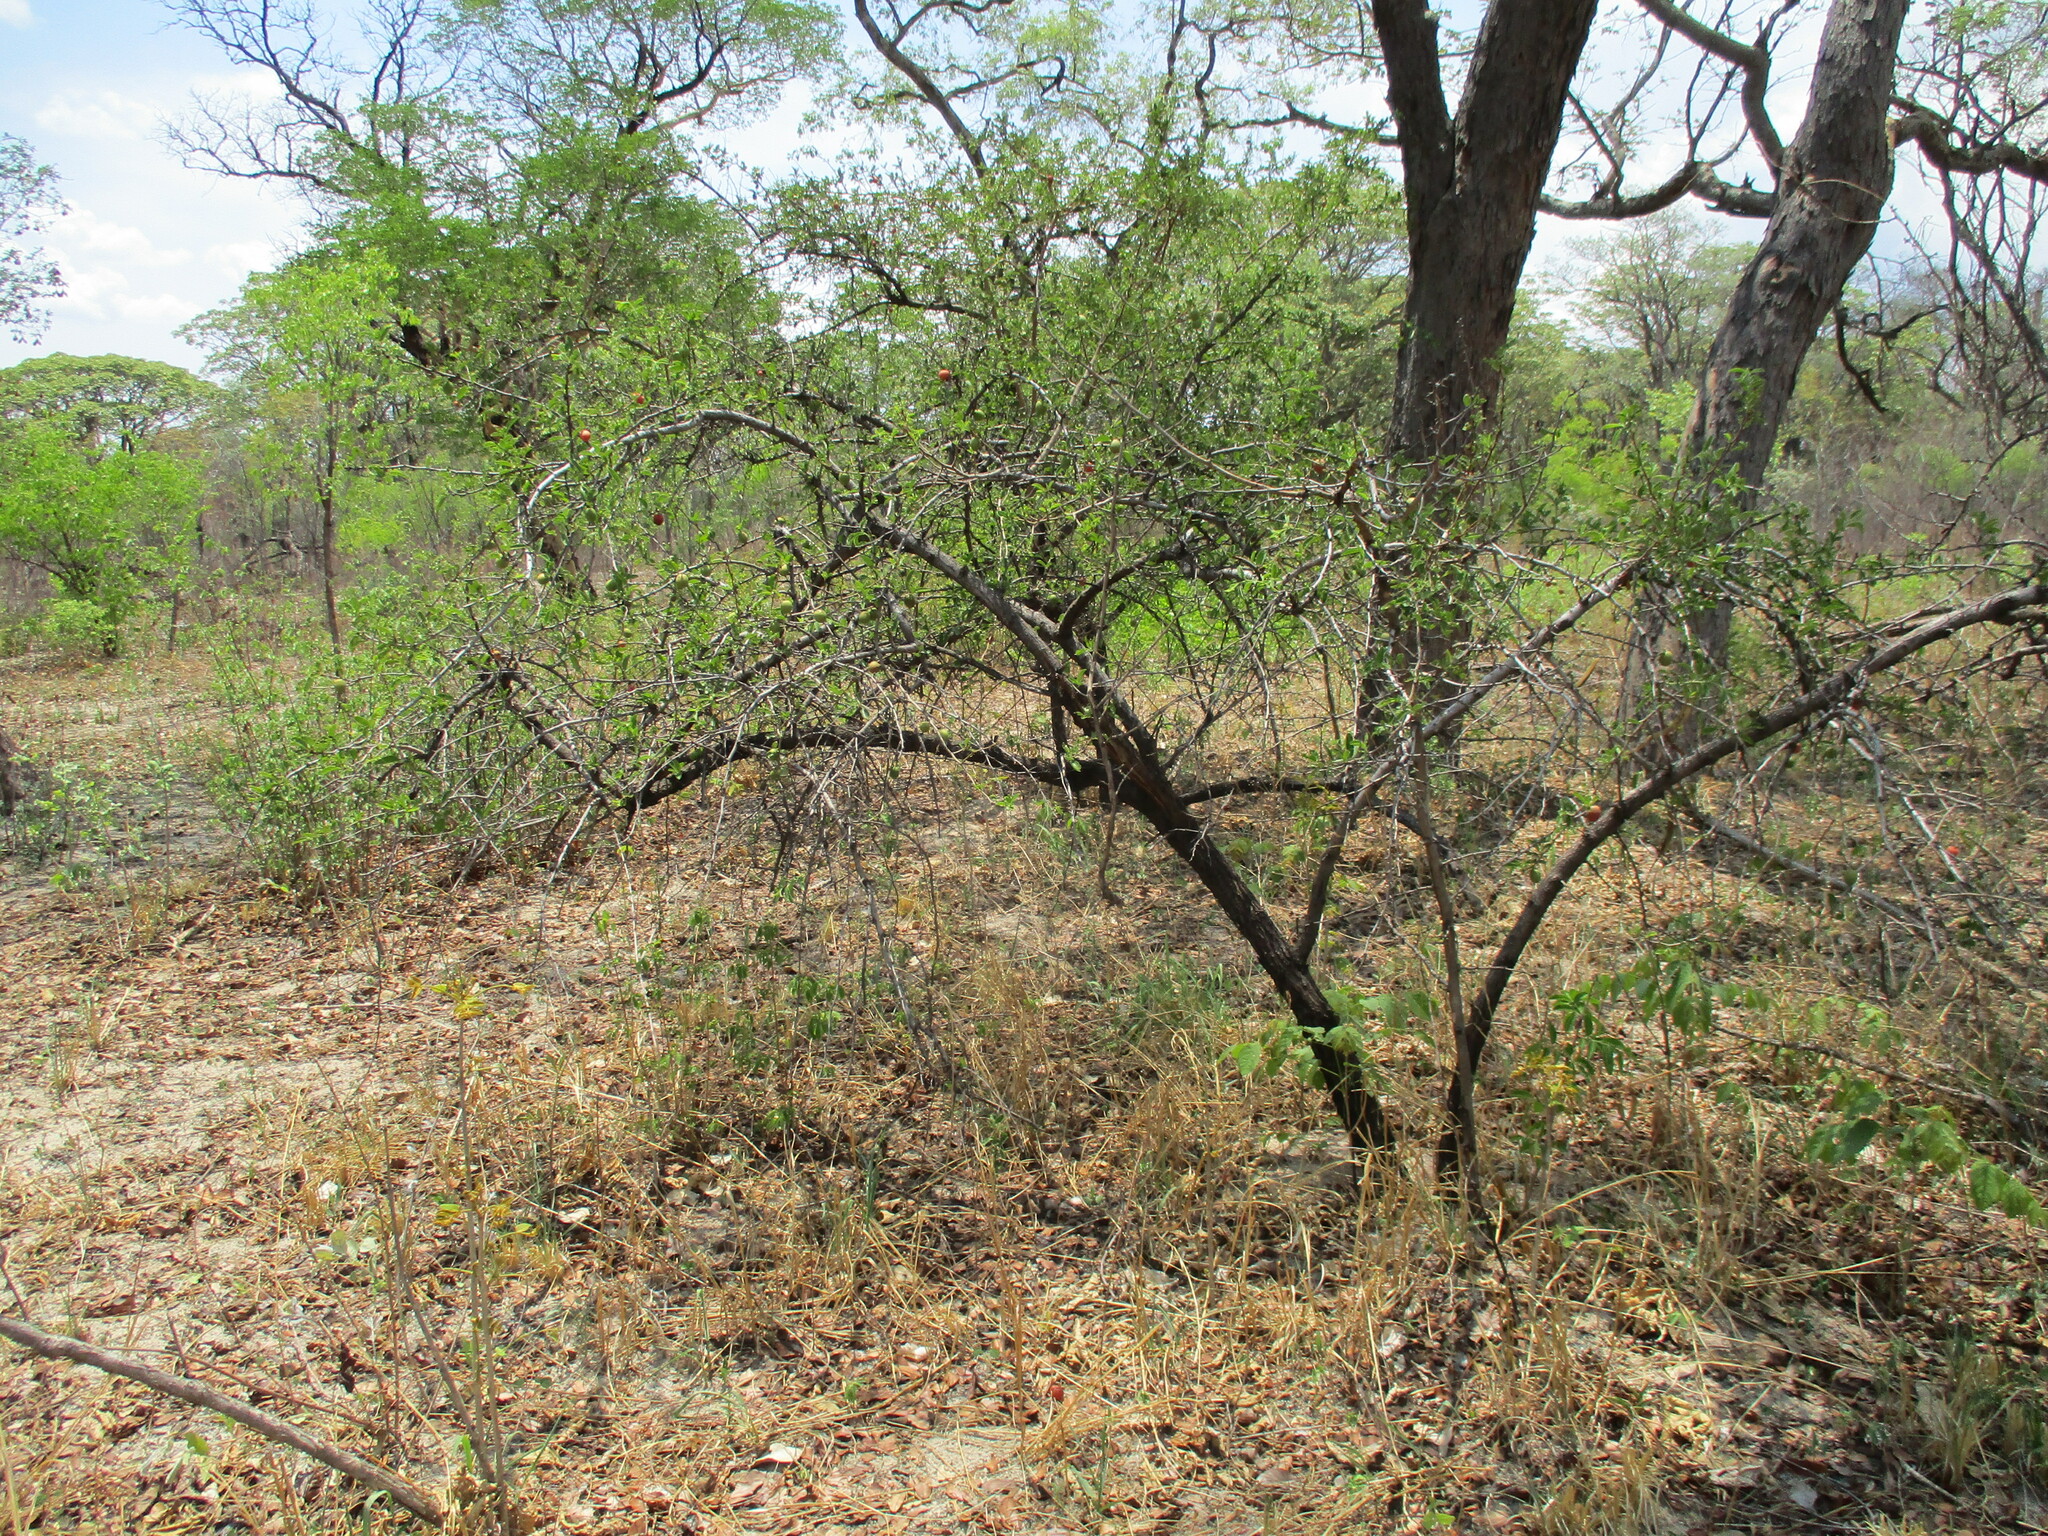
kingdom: Plantae
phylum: Tracheophyta
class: Magnoliopsida
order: Santalales
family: Ximeniaceae
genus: Ximenia
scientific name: Ximenia caffra
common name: Large sourplum
